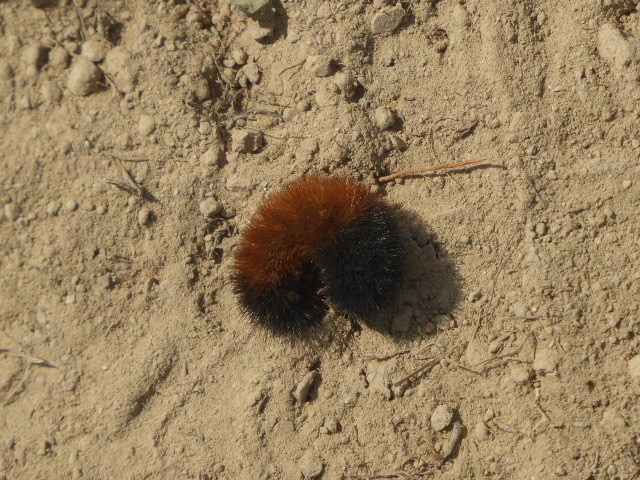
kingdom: Animalia
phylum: Arthropoda
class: Insecta
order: Lepidoptera
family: Erebidae
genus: Pyrrharctia
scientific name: Pyrrharctia isabella
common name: Isabella tiger moth
